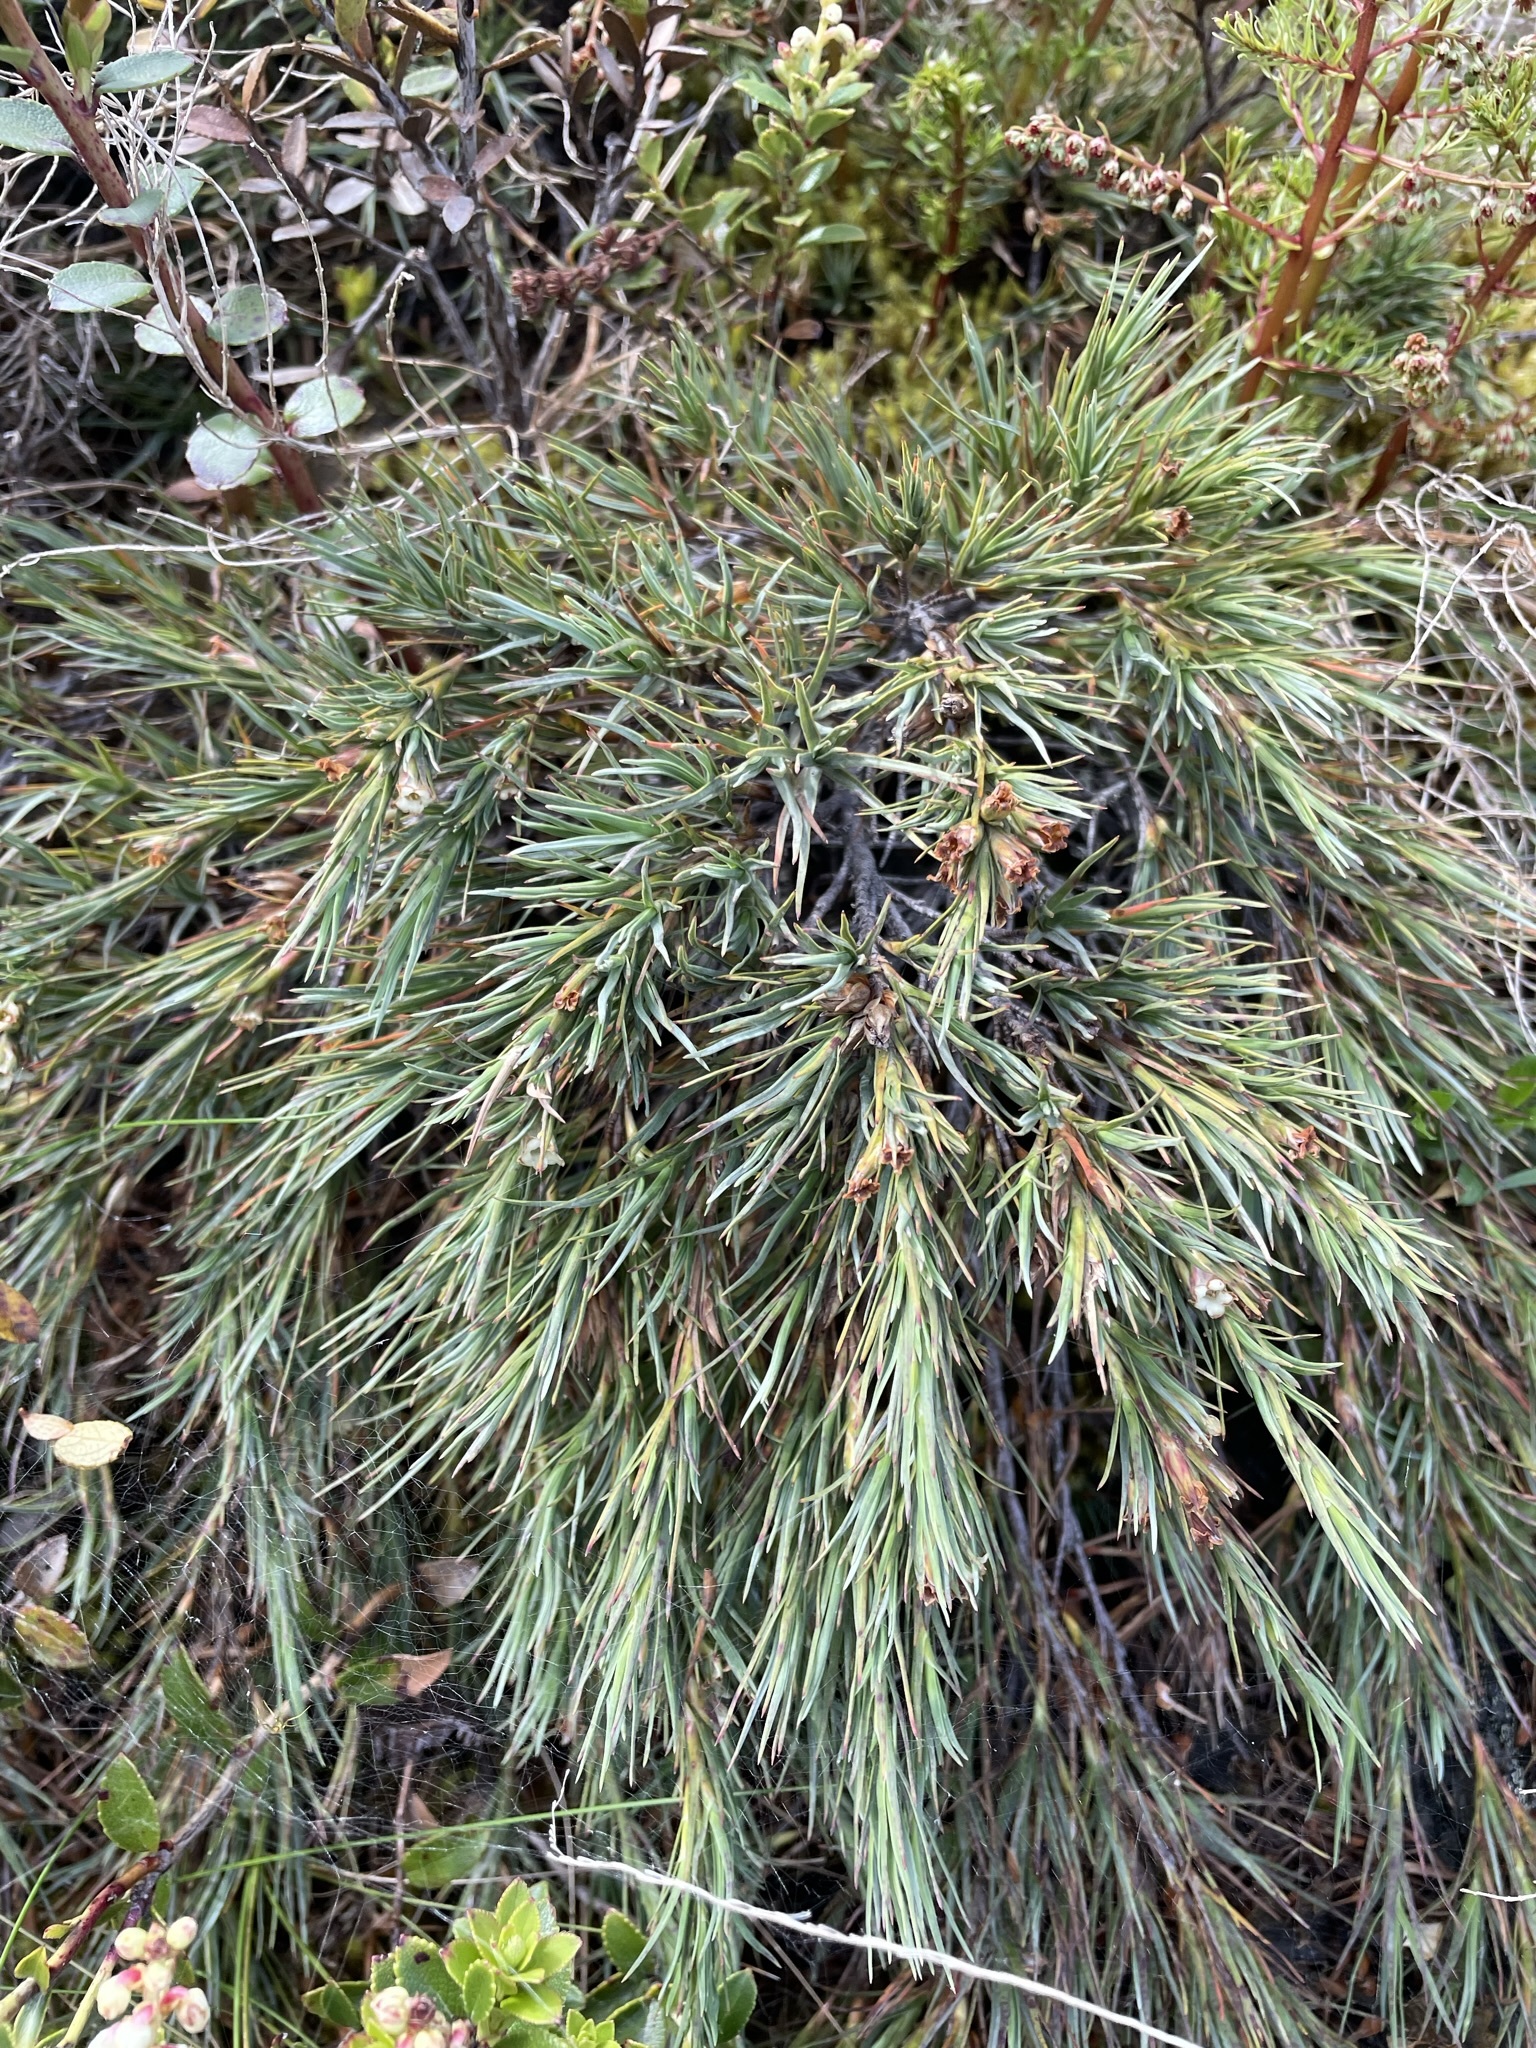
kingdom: Plantae
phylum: Tracheophyta
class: Magnoliopsida
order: Ericales
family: Ericaceae
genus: Dracophyllum
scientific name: Dracophyllum kirkii
